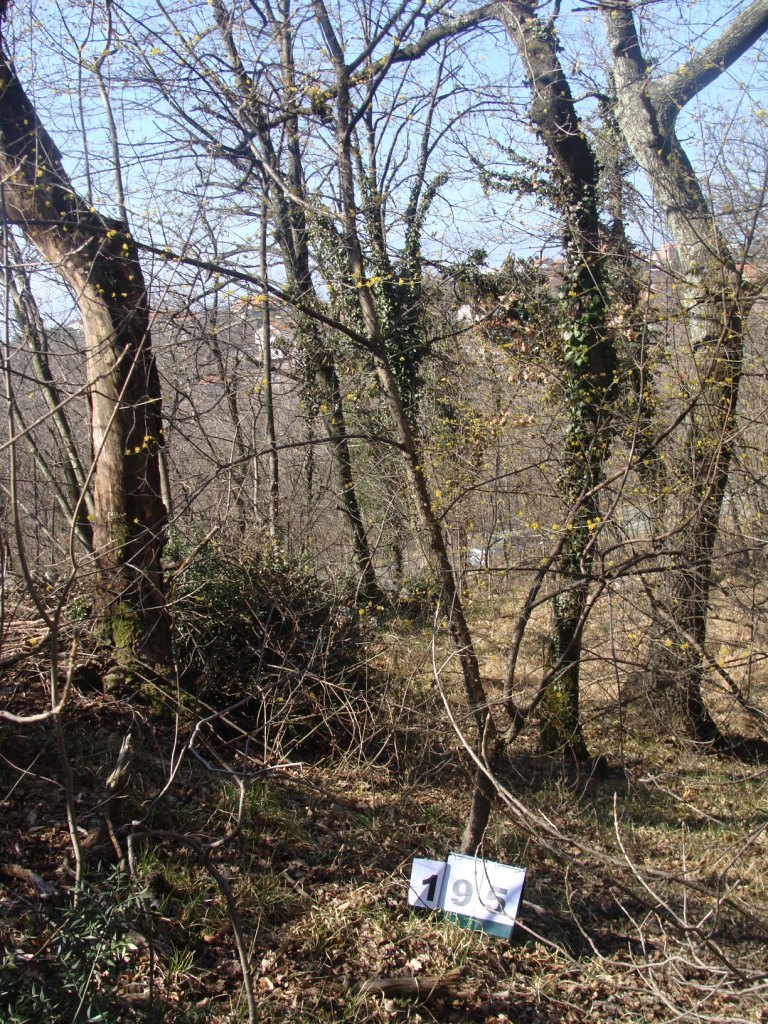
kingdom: Plantae
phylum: Tracheophyta
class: Magnoliopsida
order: Cornales
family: Cornaceae
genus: Cornus
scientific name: Cornus mas
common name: Cornelian-cherry
